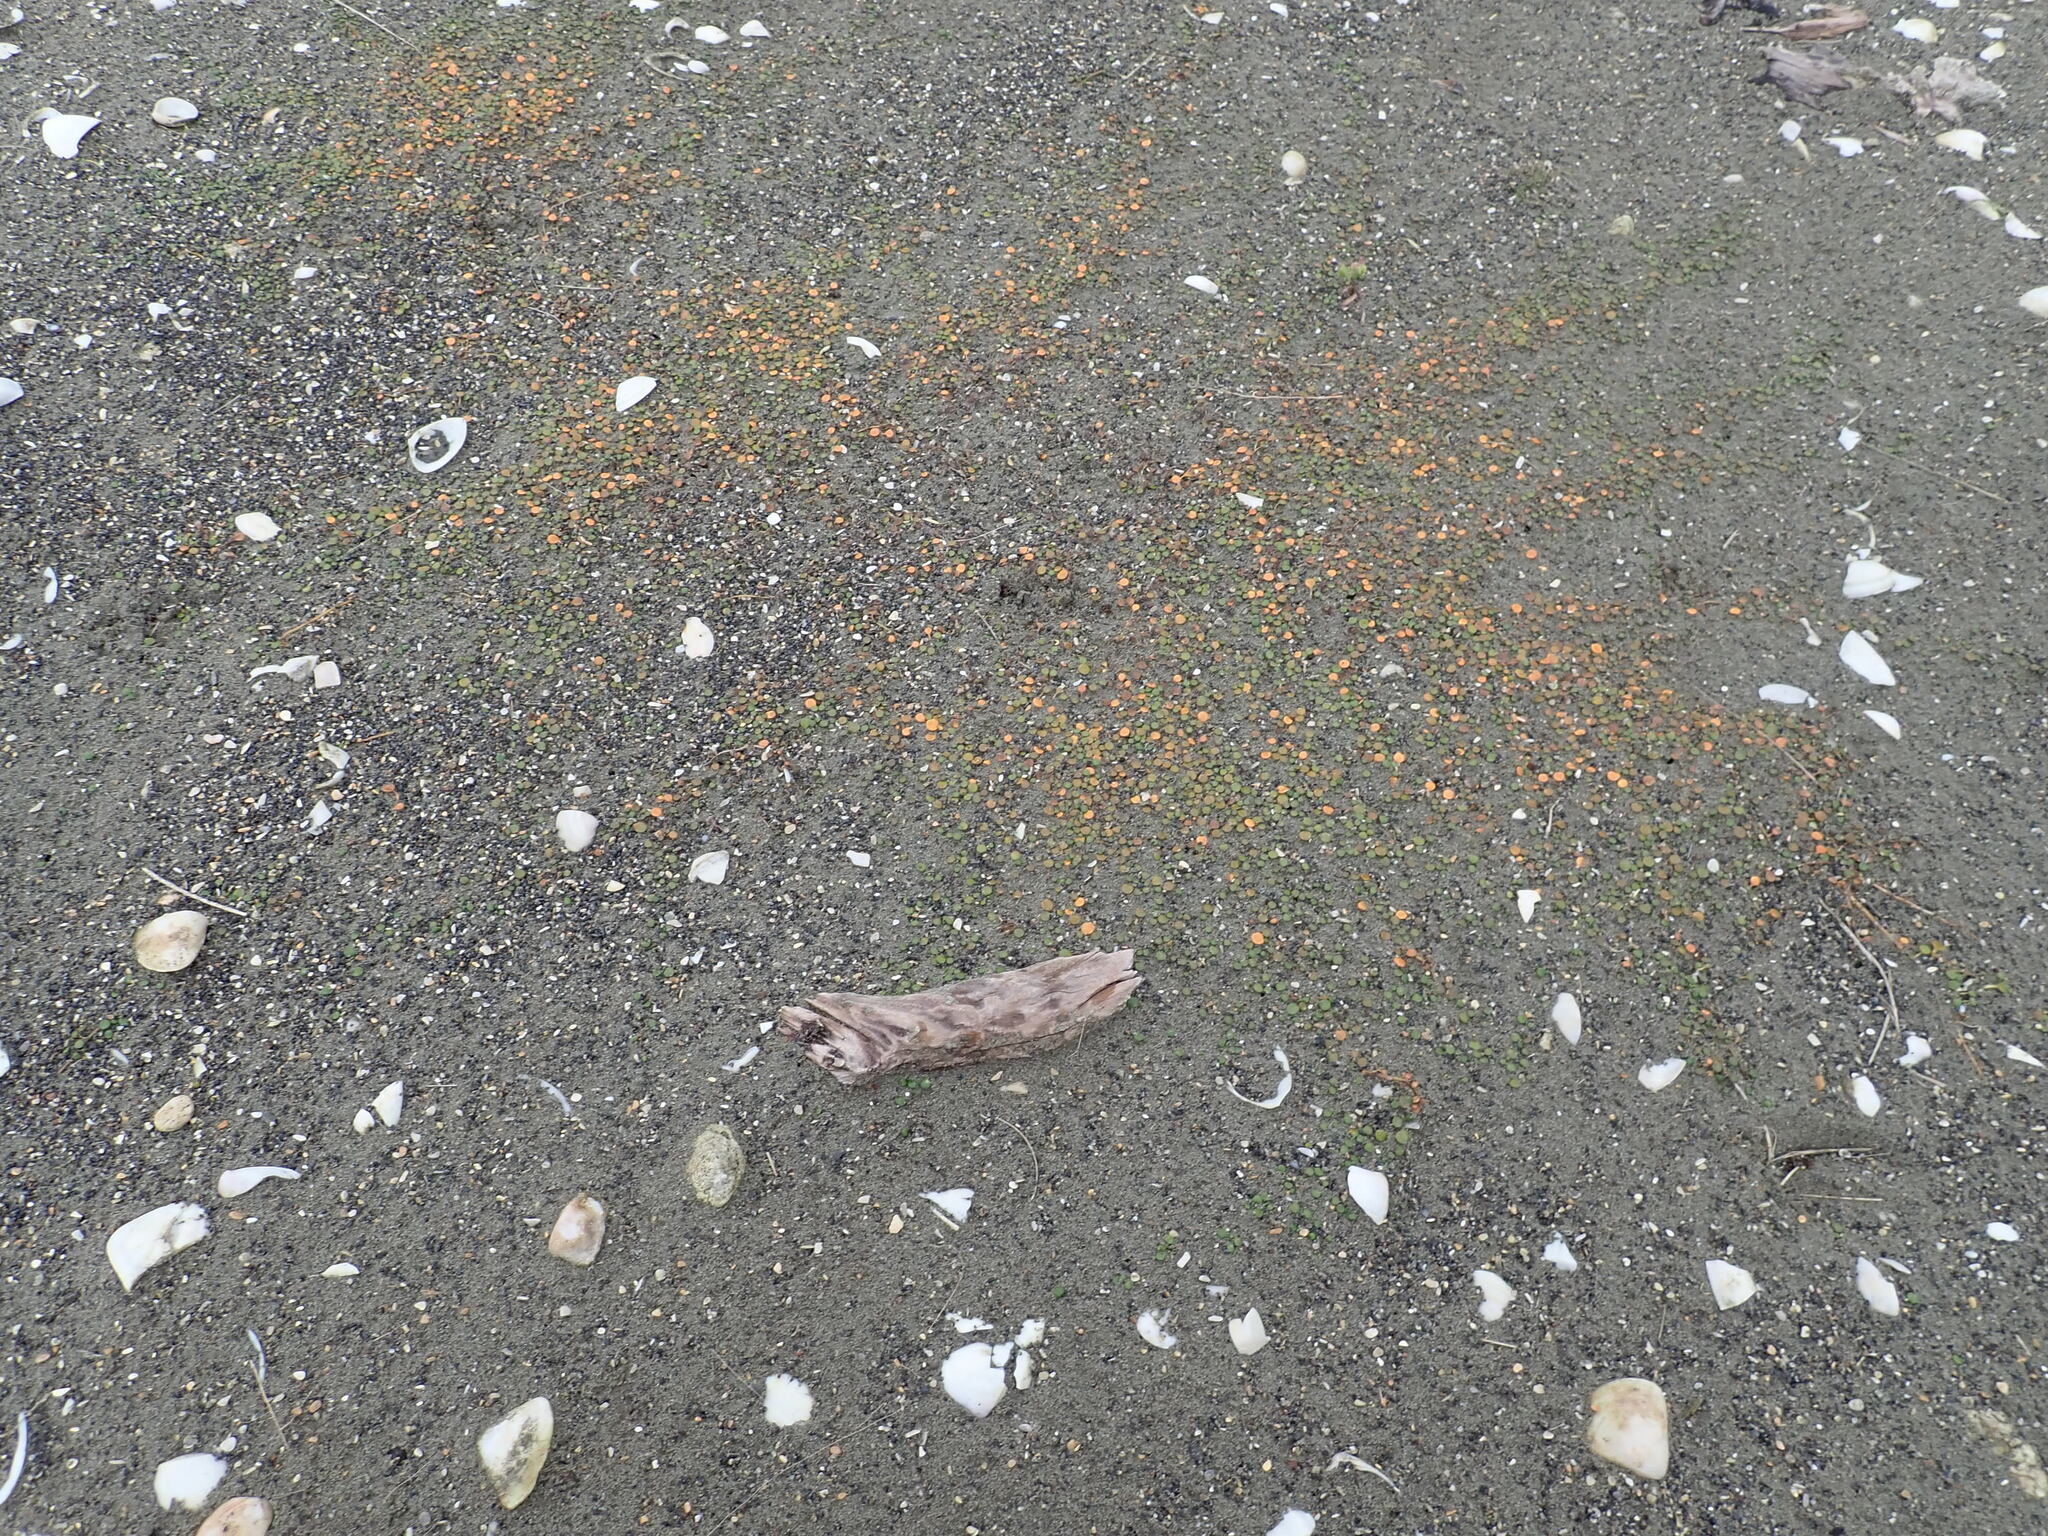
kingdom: Plantae
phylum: Tracheophyta
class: Magnoliopsida
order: Asterales
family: Goodeniaceae
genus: Goodenia
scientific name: Goodenia heenanii
